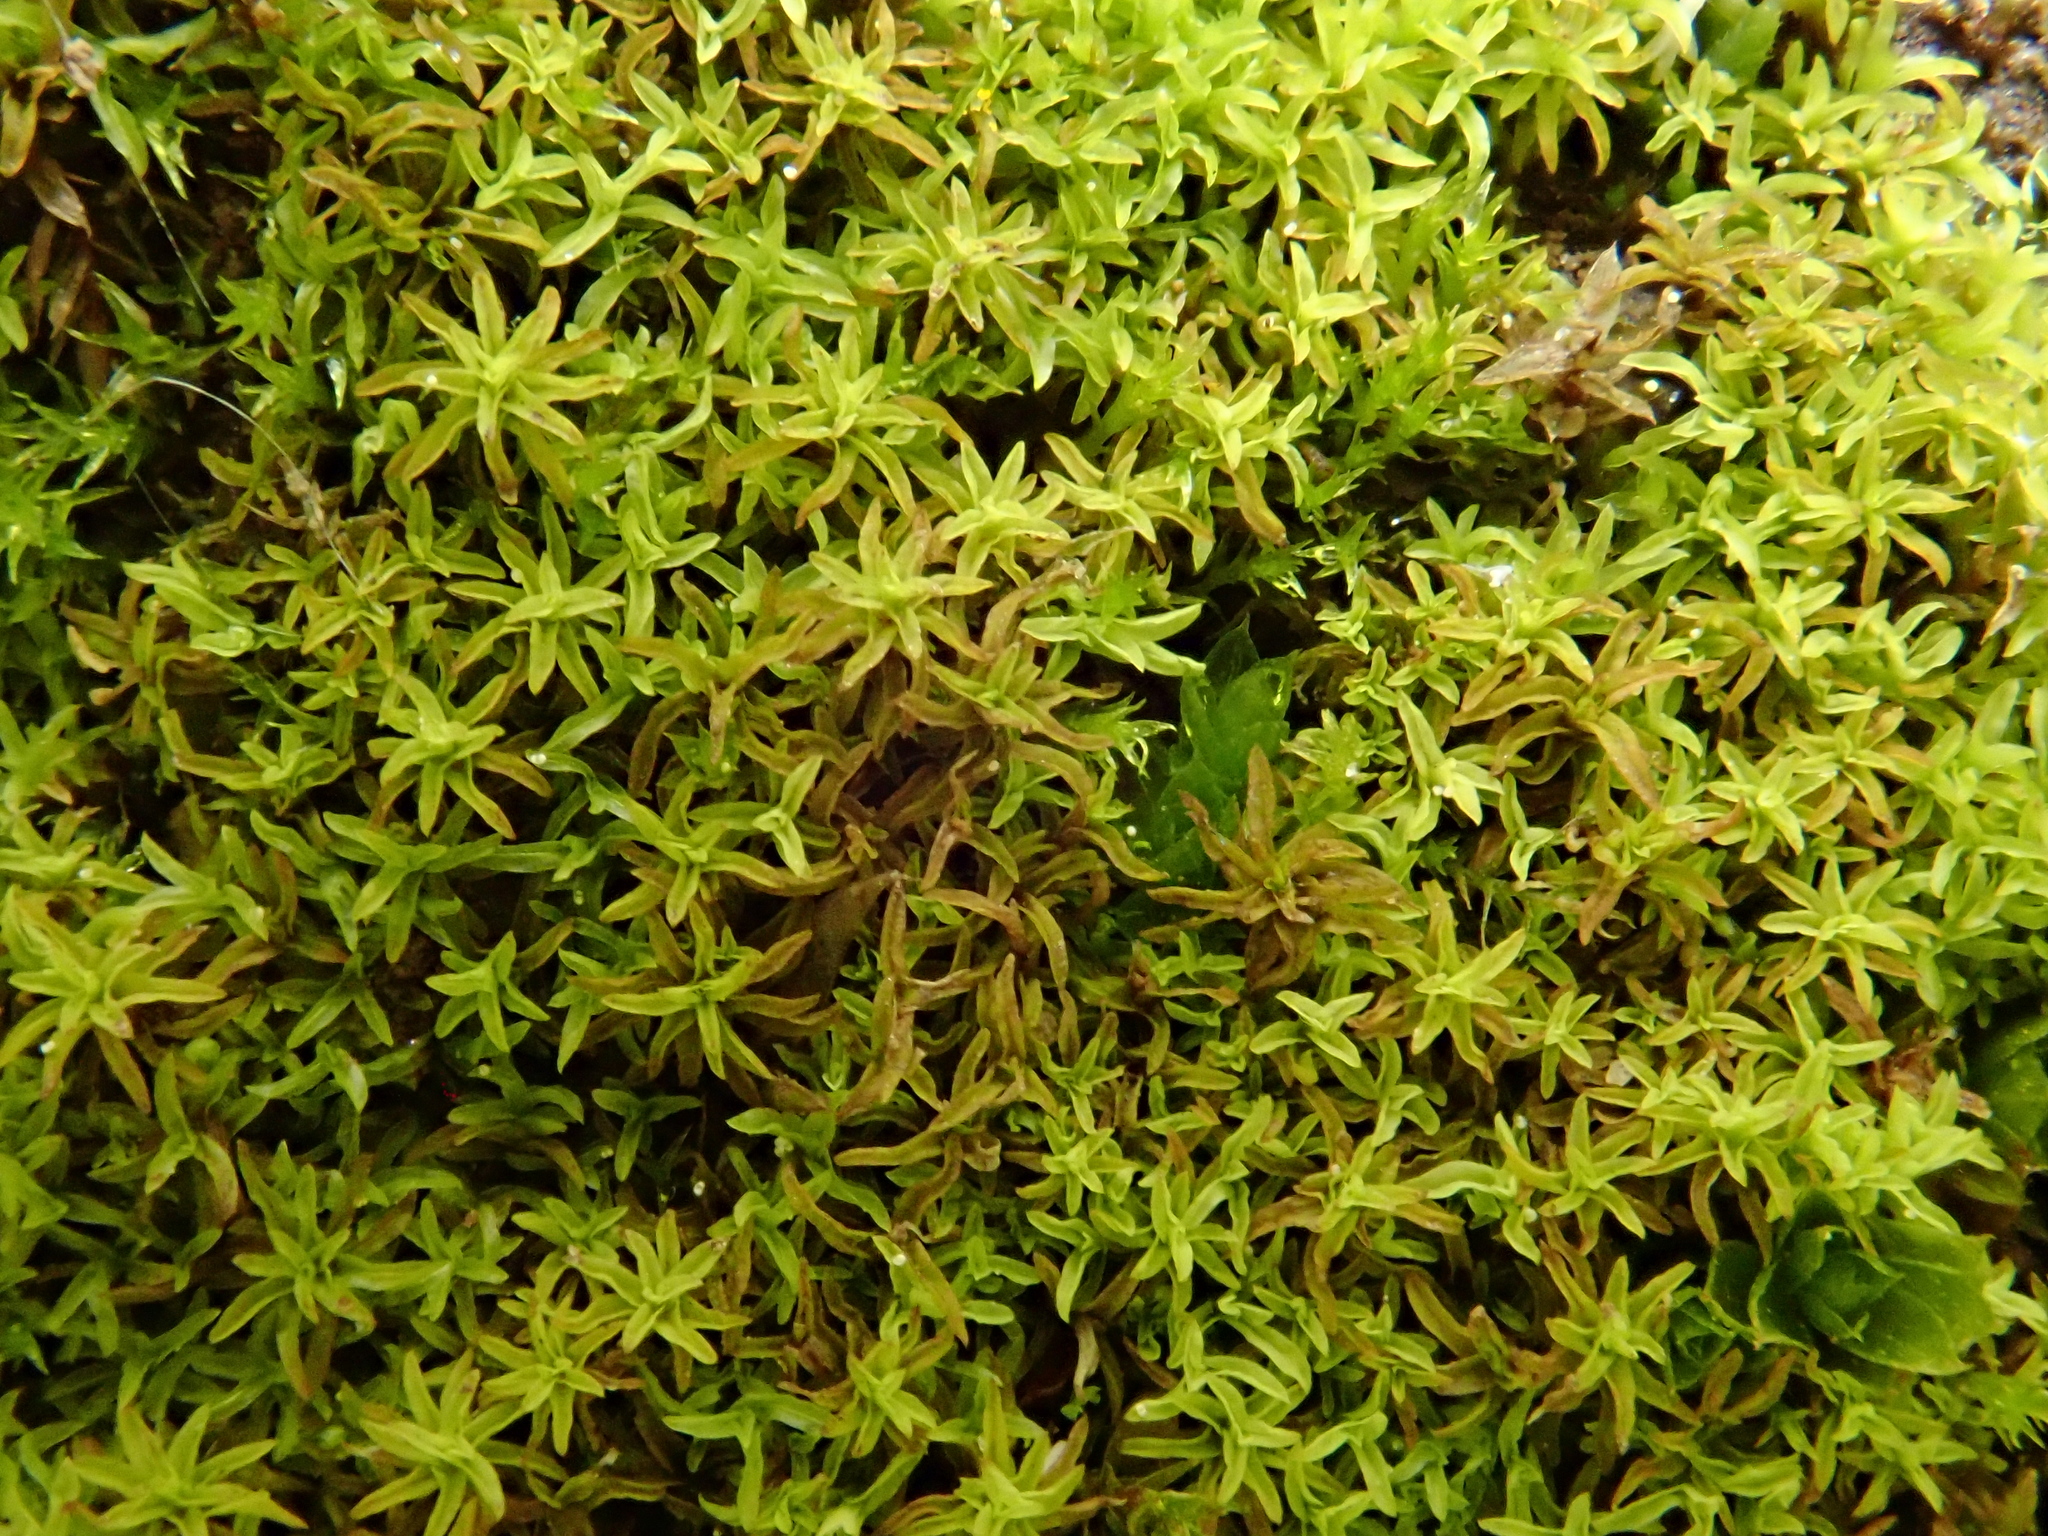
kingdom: Plantae
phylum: Bryophyta
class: Bryopsida
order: Pottiales
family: Pottiaceae
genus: Streblotrichum
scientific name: Streblotrichum convolutum
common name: Lesser bird's-claw beard-moss
